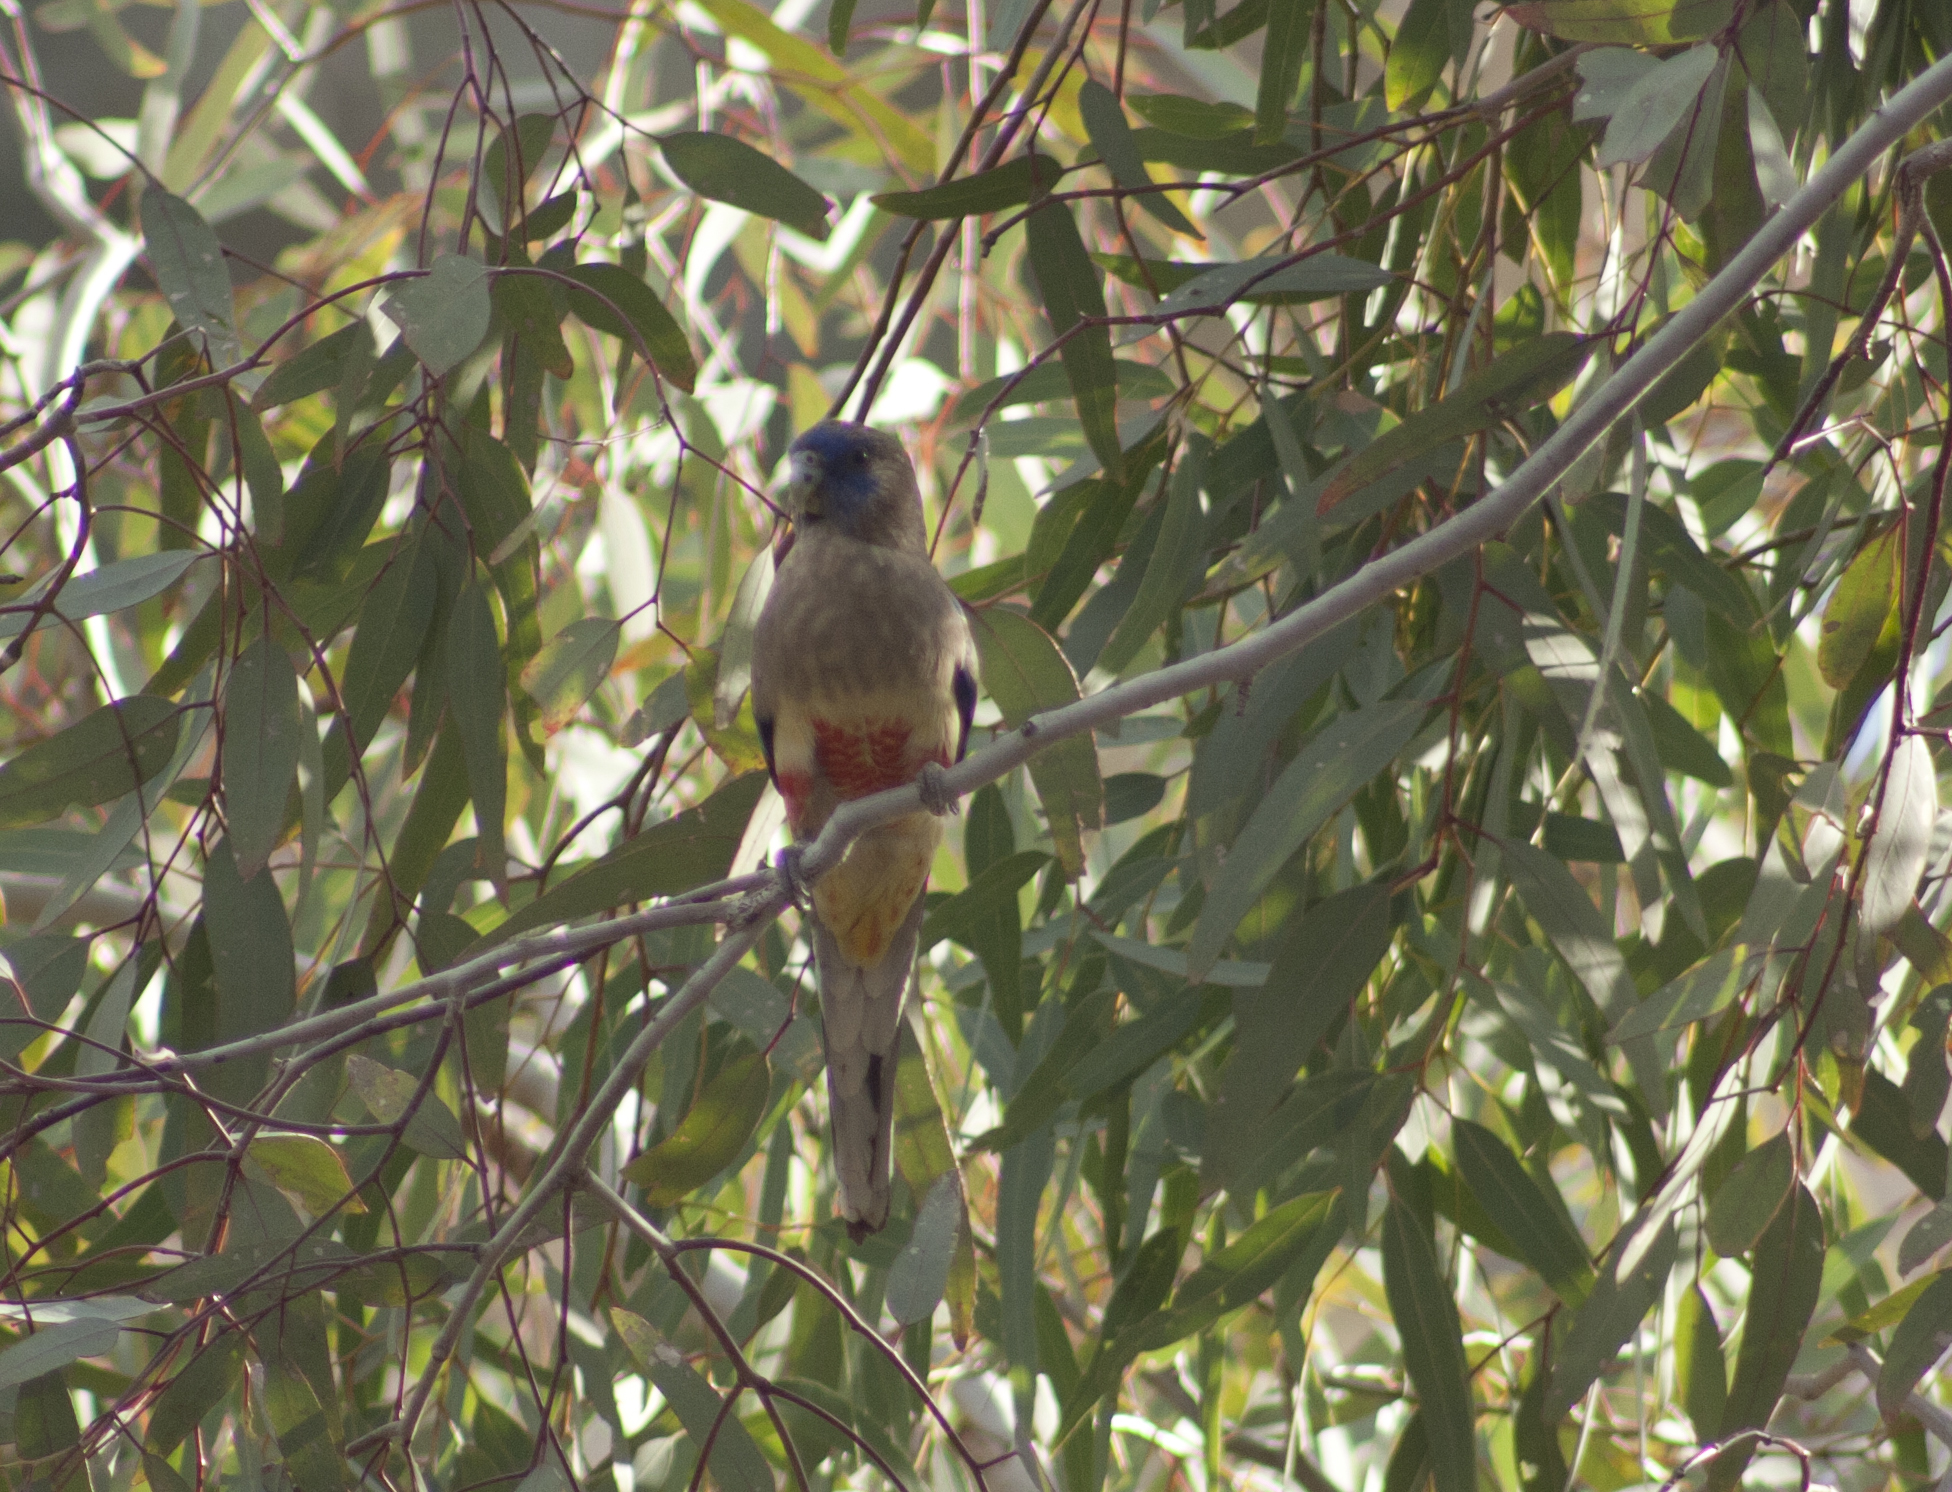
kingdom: Animalia
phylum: Chordata
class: Aves
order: Psittaciformes
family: Psittacidae
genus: Northiella
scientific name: Northiella haematogaster
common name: Bluebonnet
